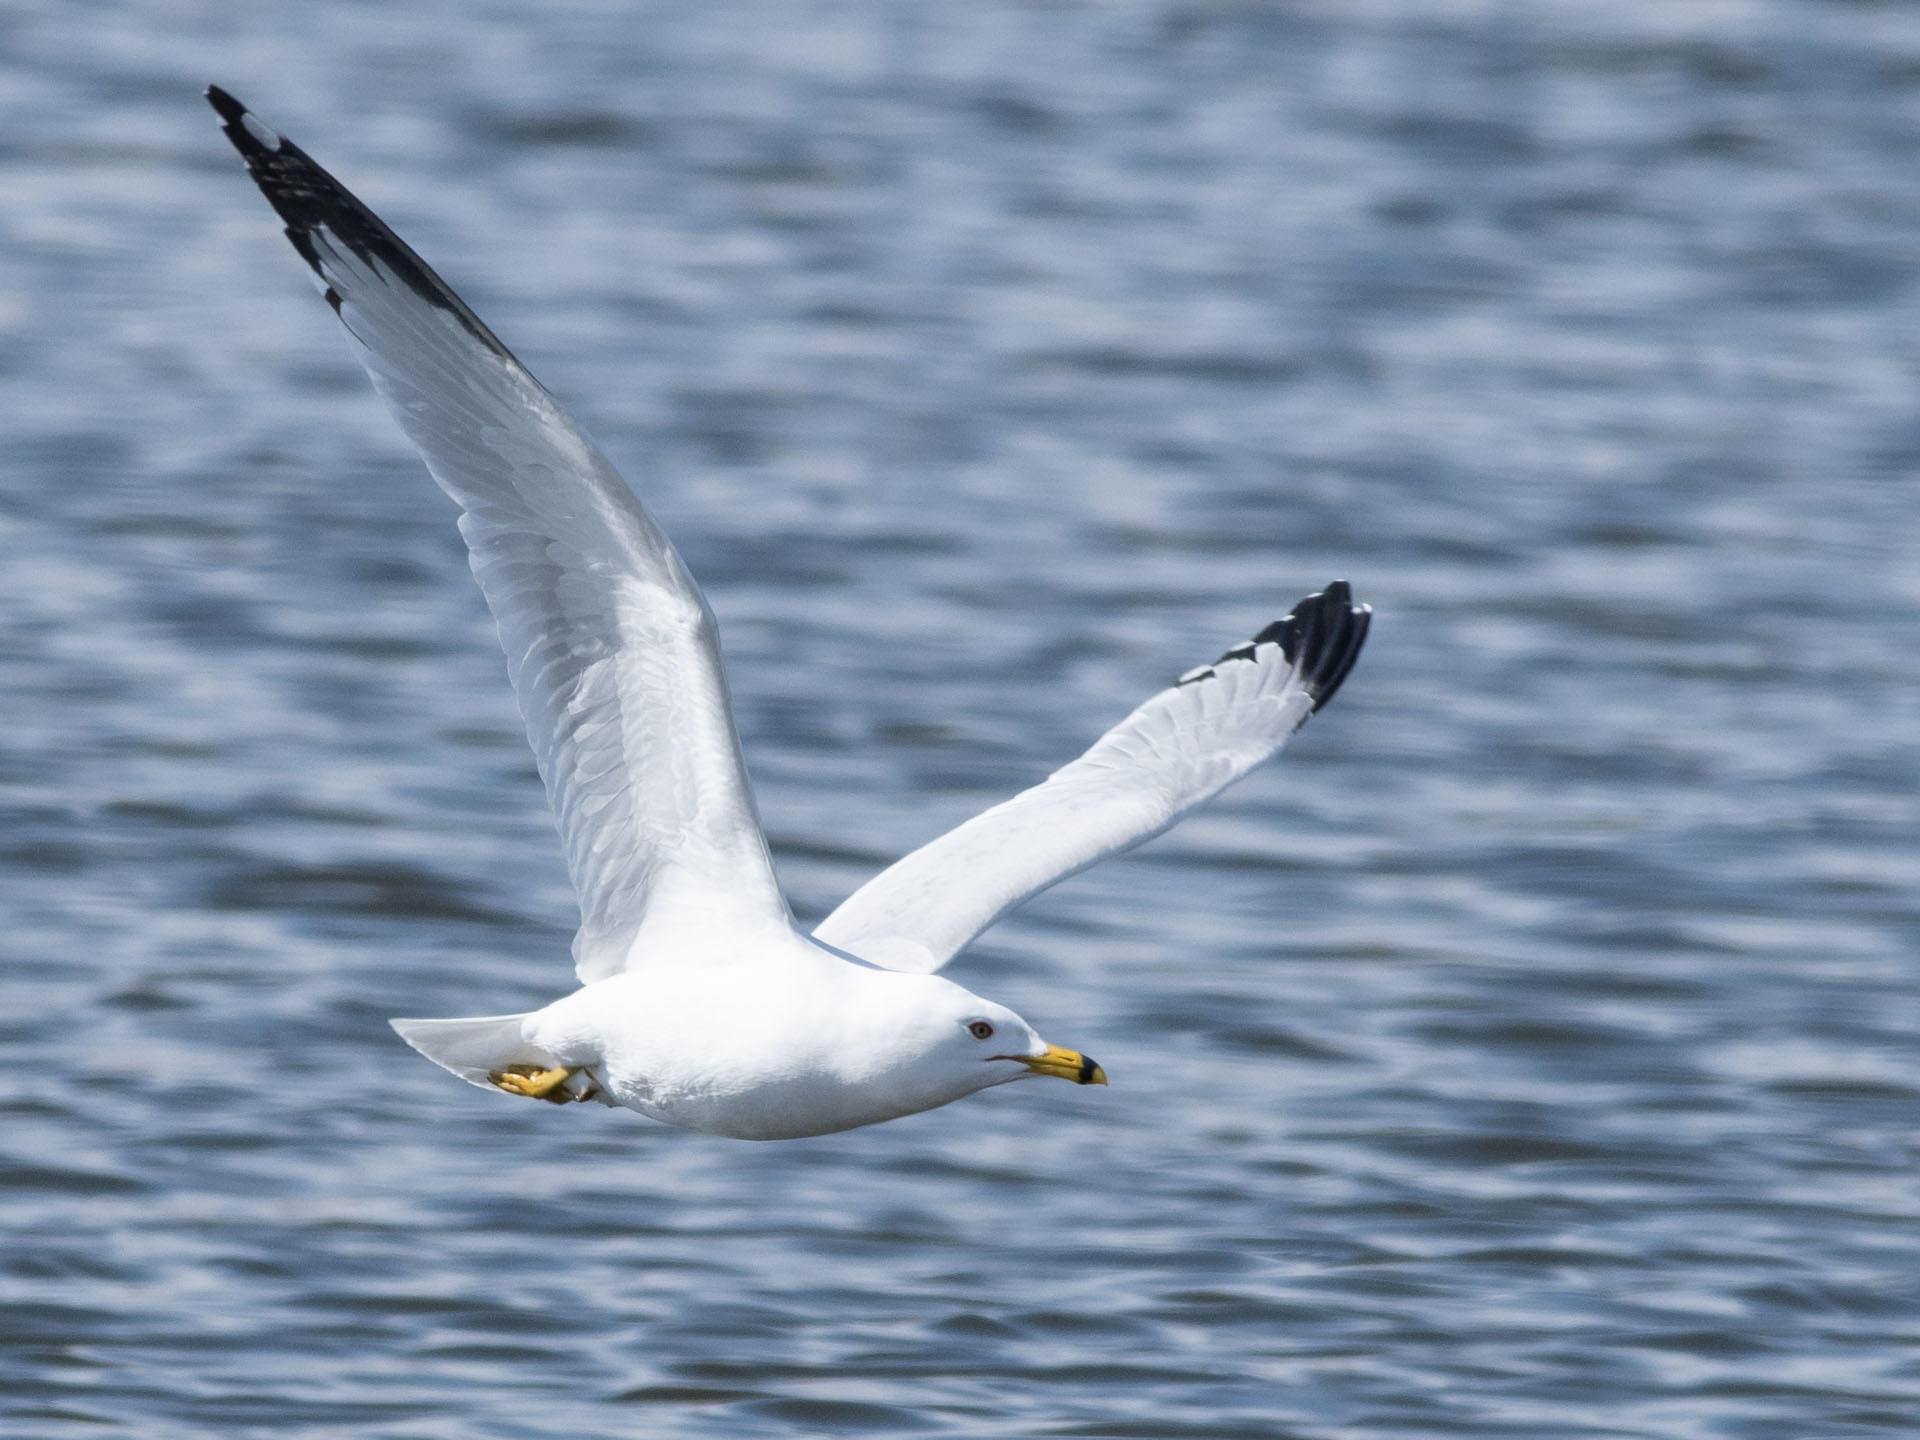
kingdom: Animalia
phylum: Chordata
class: Aves
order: Charadriiformes
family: Laridae
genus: Larus
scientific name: Larus delawarensis
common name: Ring-billed gull
